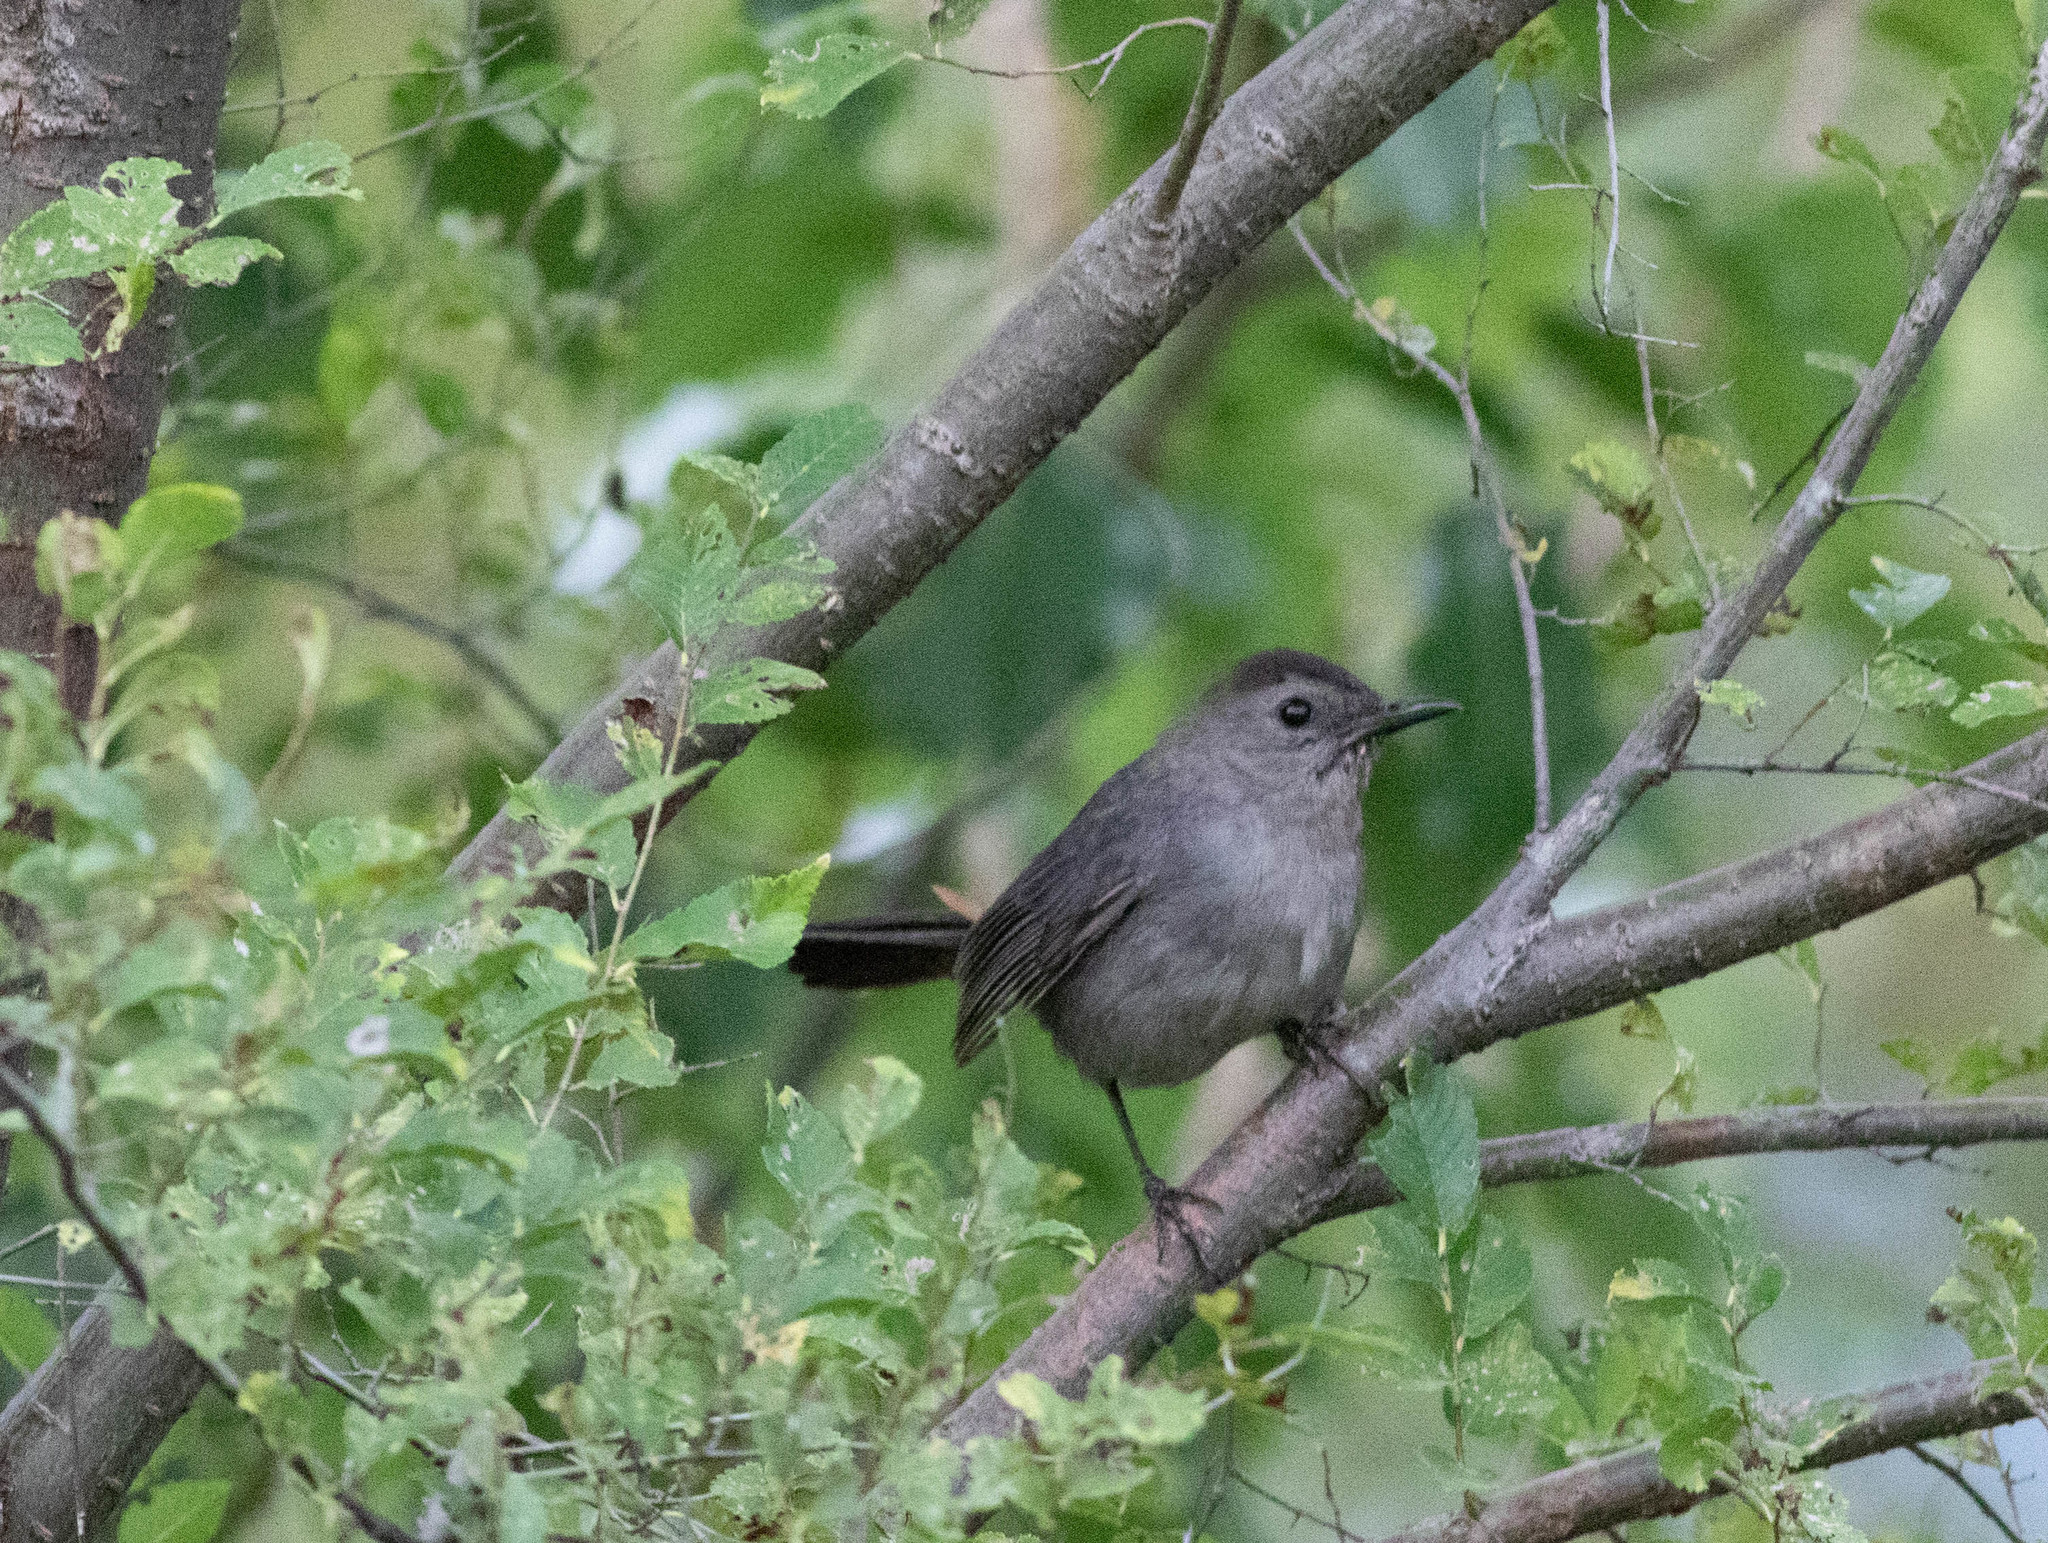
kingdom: Animalia
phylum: Chordata
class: Aves
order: Passeriformes
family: Mimidae
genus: Dumetella
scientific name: Dumetella carolinensis
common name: Gray catbird
